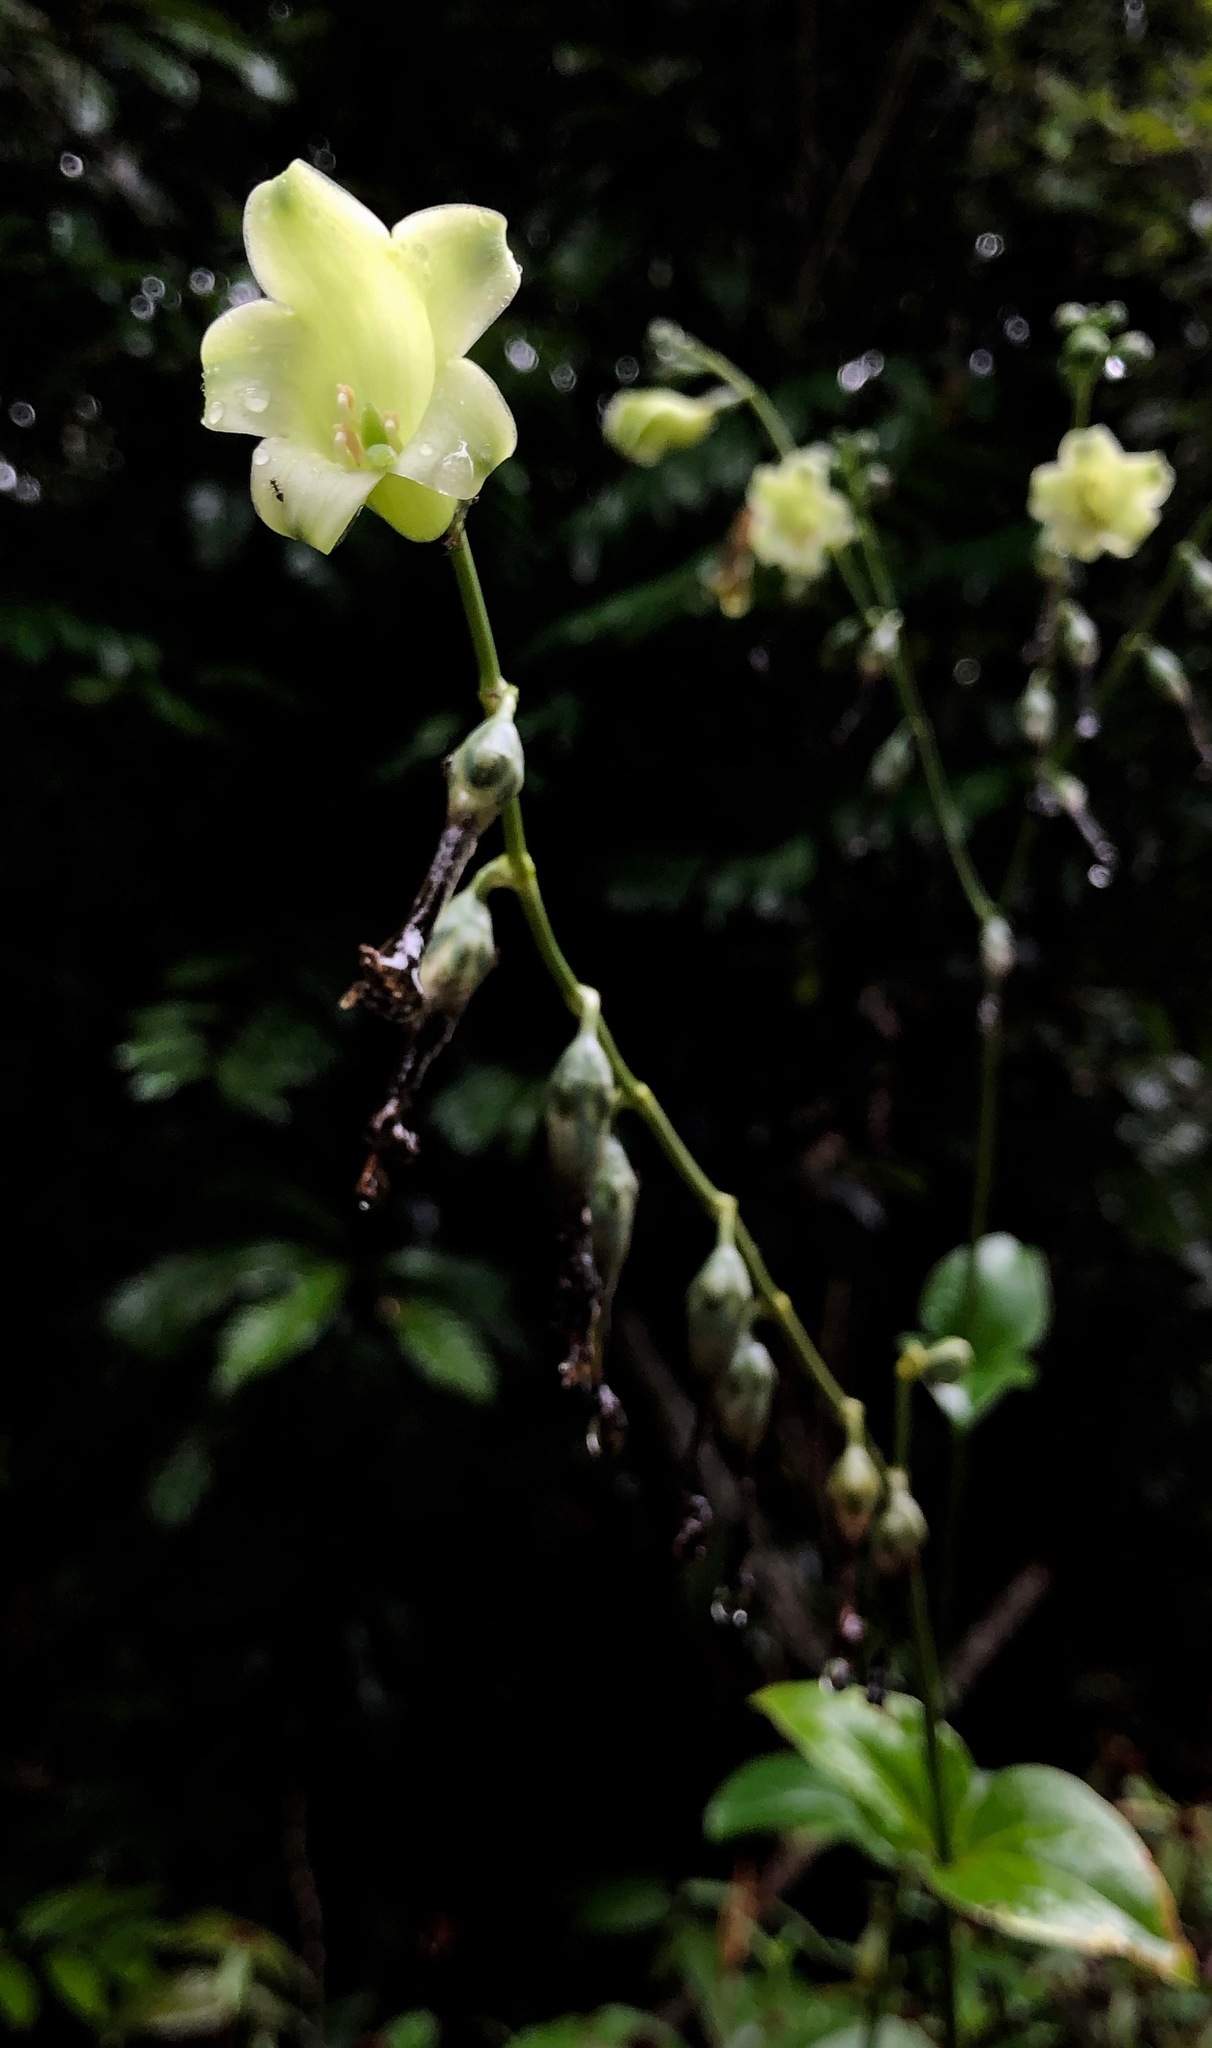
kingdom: Plantae
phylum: Tracheophyta
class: Magnoliopsida
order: Gentianales
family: Gentianaceae
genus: Chelonanthus
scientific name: Chelonanthus alatus
